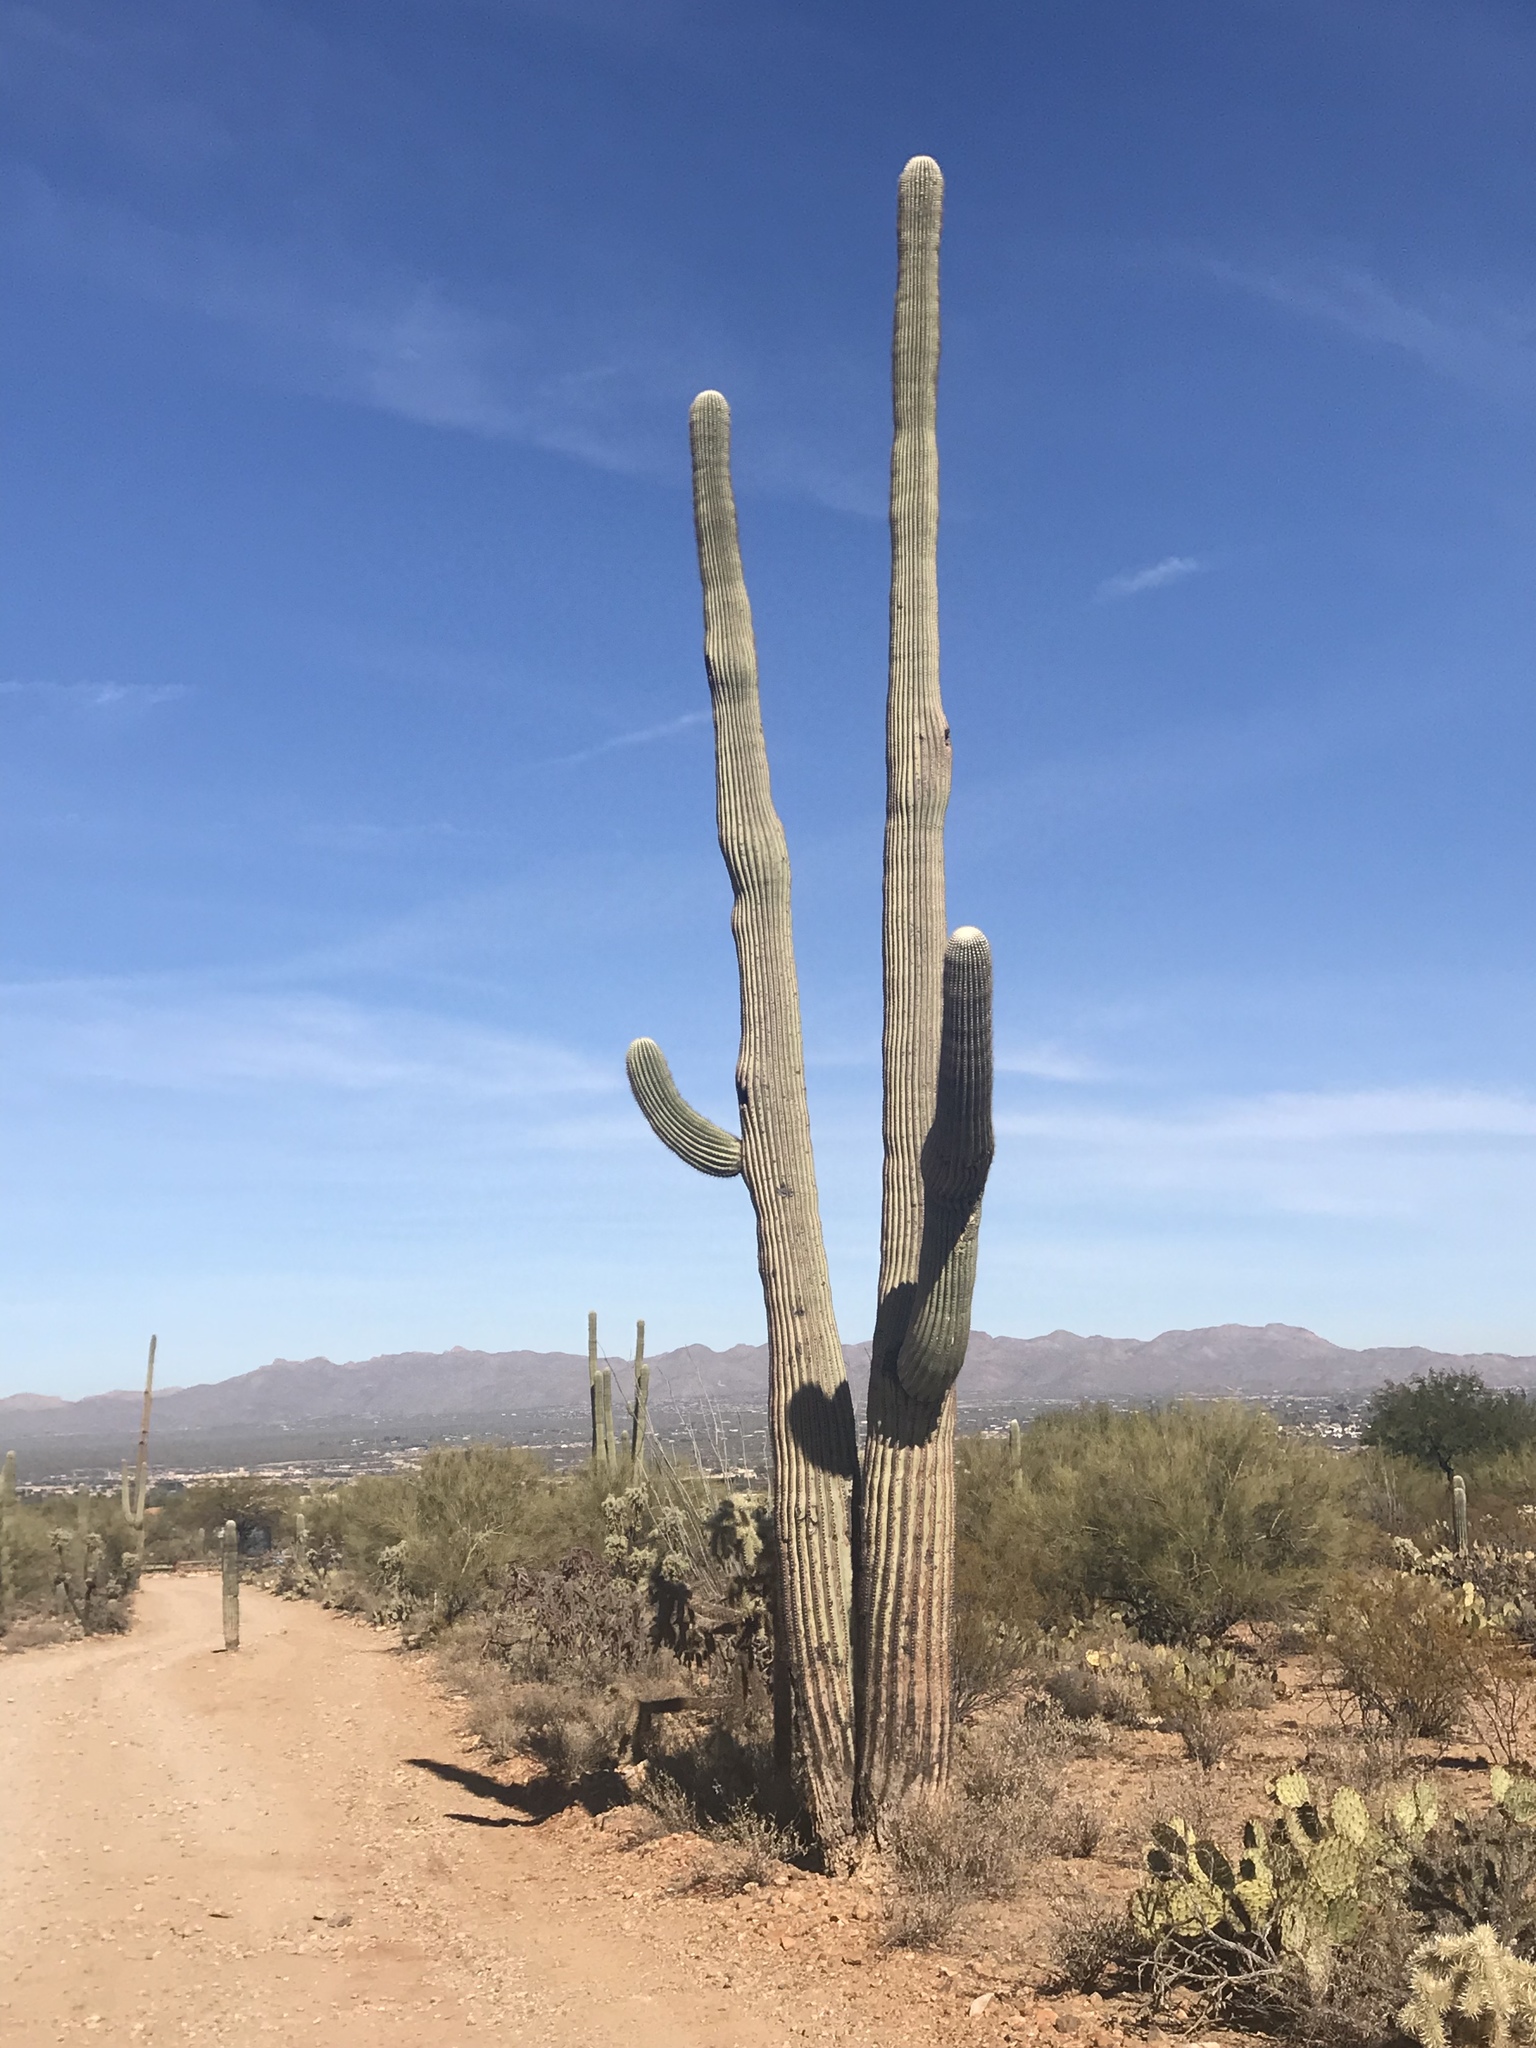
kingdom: Plantae
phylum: Tracheophyta
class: Magnoliopsida
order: Caryophyllales
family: Cactaceae
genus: Carnegiea
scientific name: Carnegiea gigantea
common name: Saguaro
